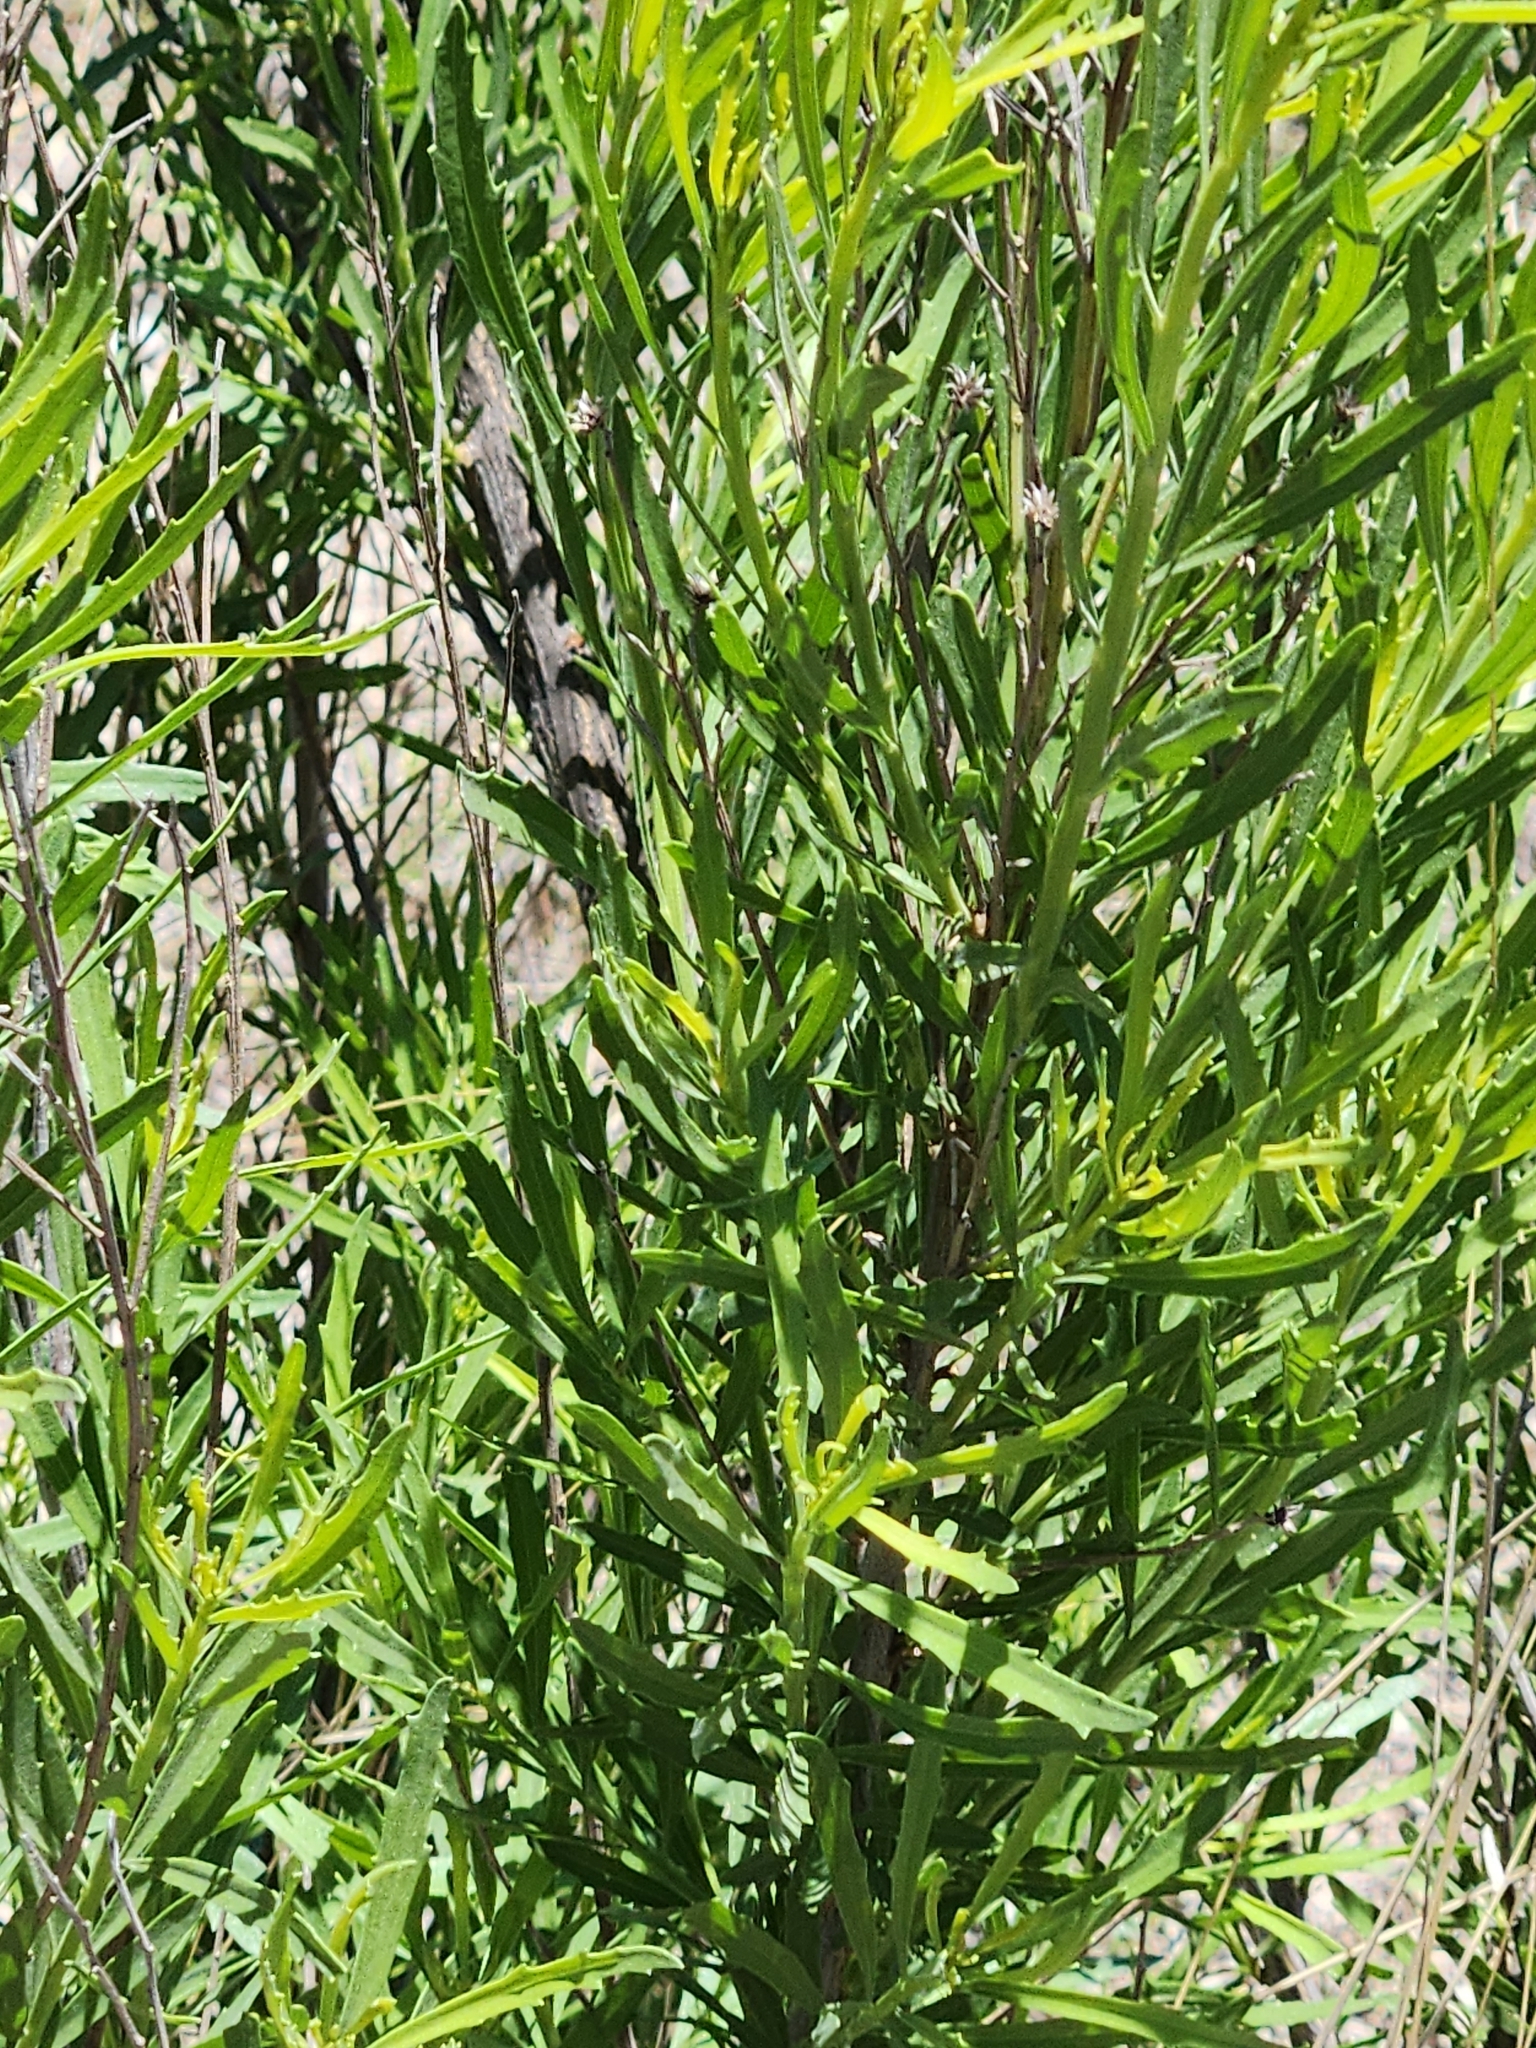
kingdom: Plantae
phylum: Tracheophyta
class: Magnoliopsida
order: Asterales
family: Asteraceae
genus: Baccharis
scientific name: Baccharis neglecta
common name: Roosevelt-weed
